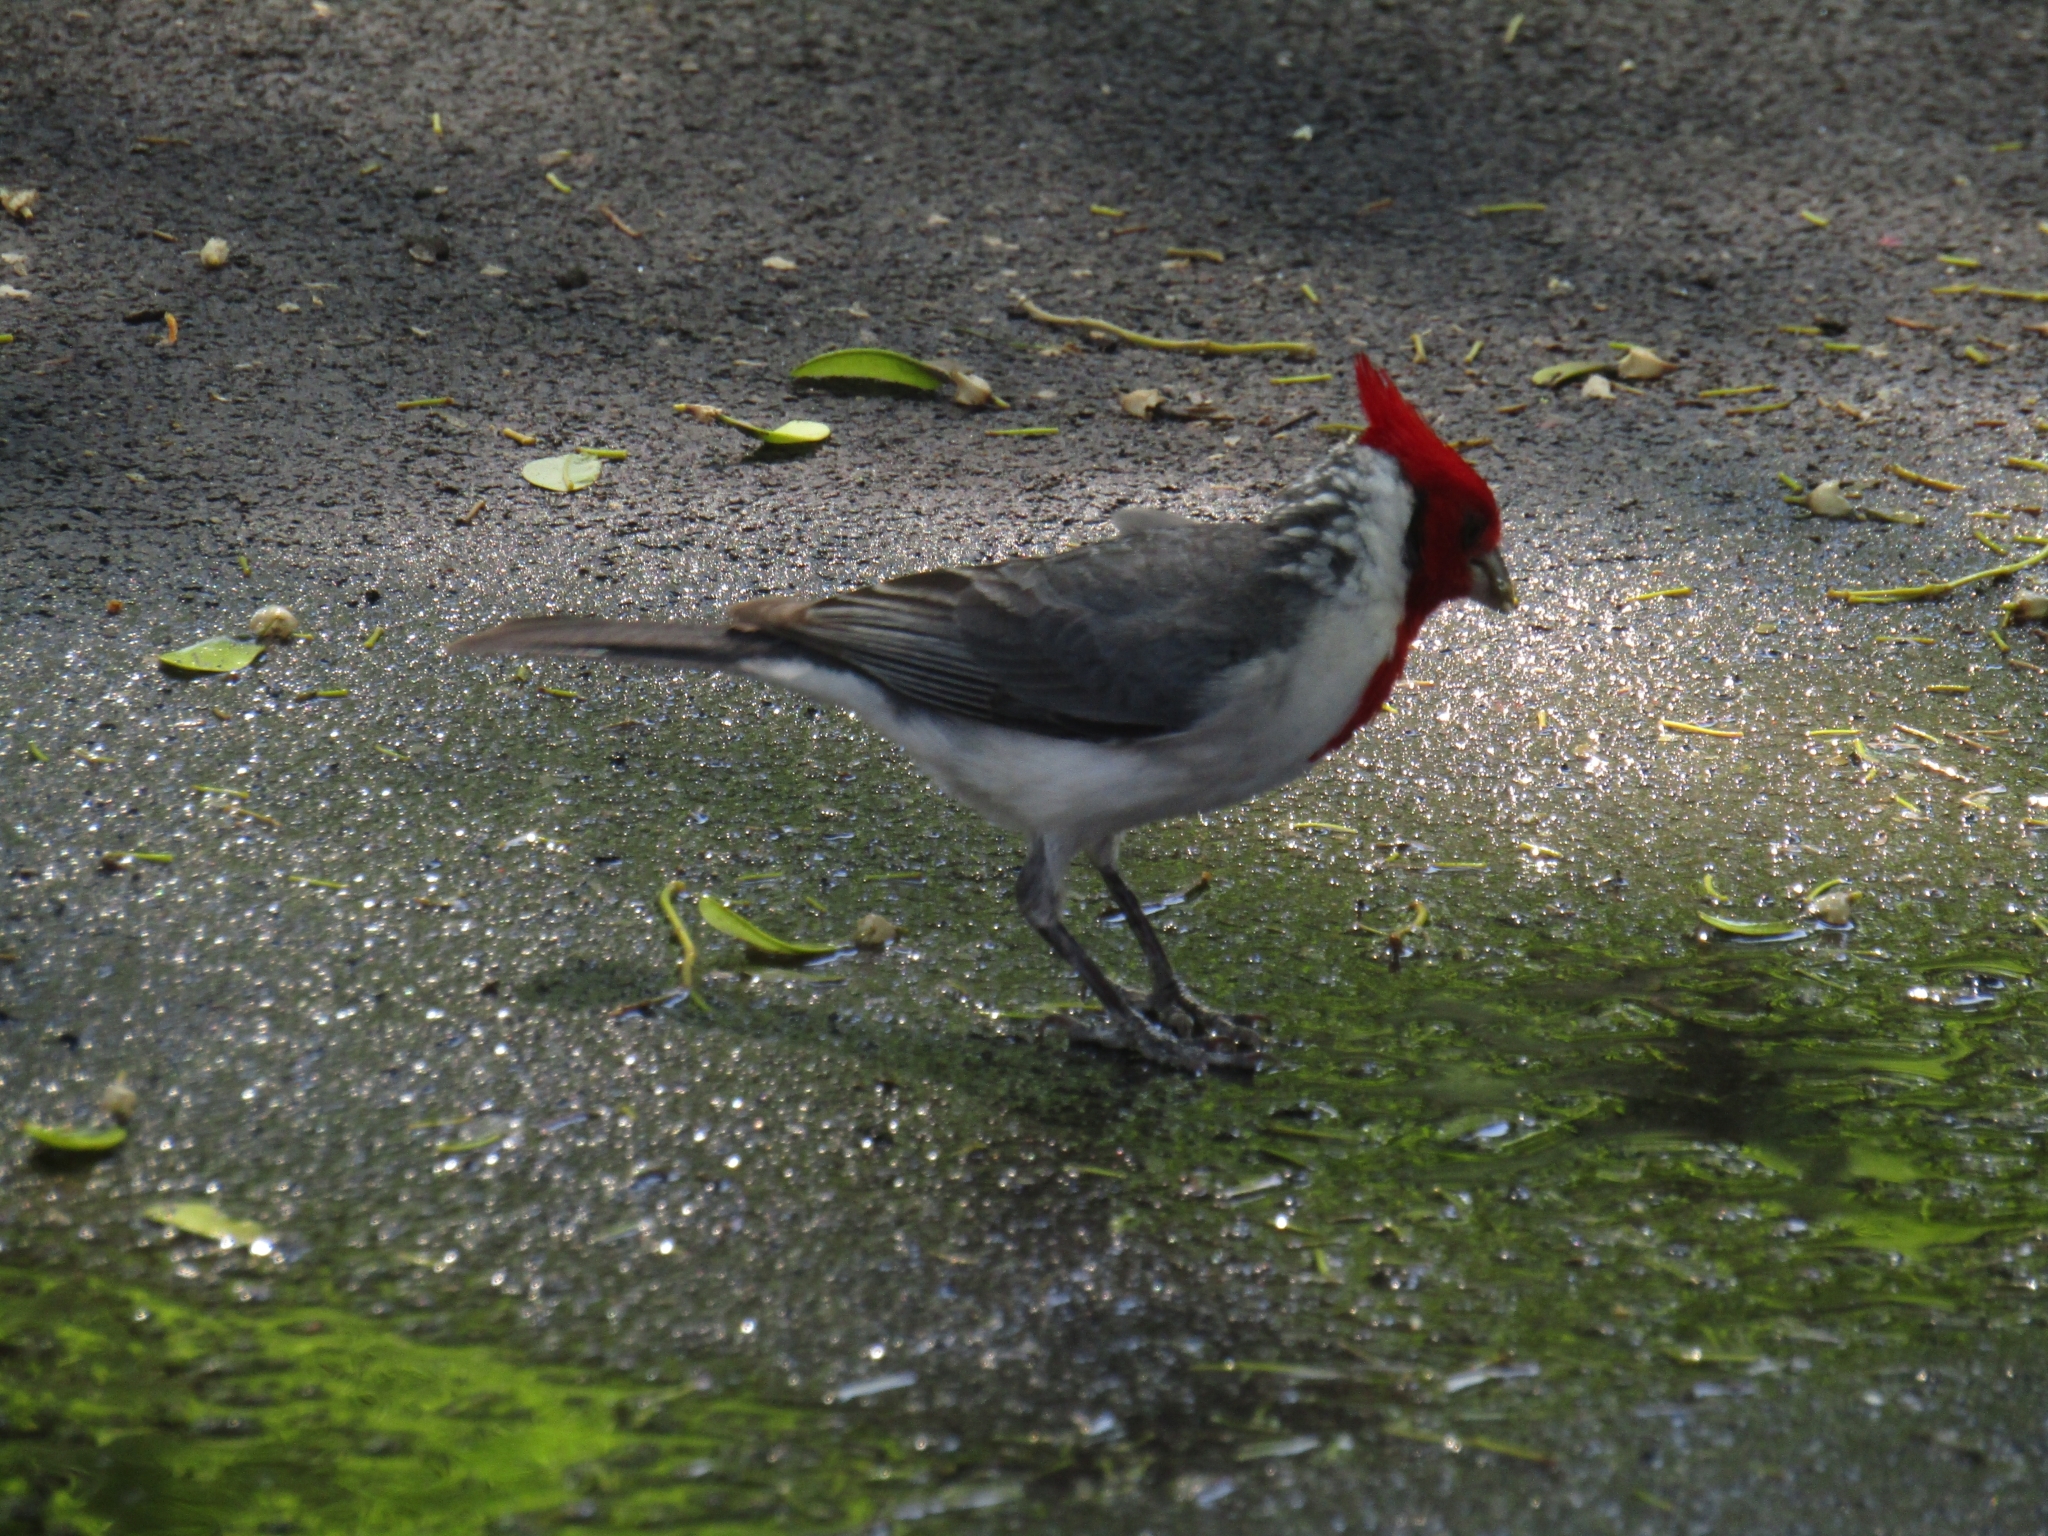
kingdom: Animalia
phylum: Chordata
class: Aves
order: Passeriformes
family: Thraupidae
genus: Paroaria
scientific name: Paroaria coronata
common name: Red-crested cardinal
